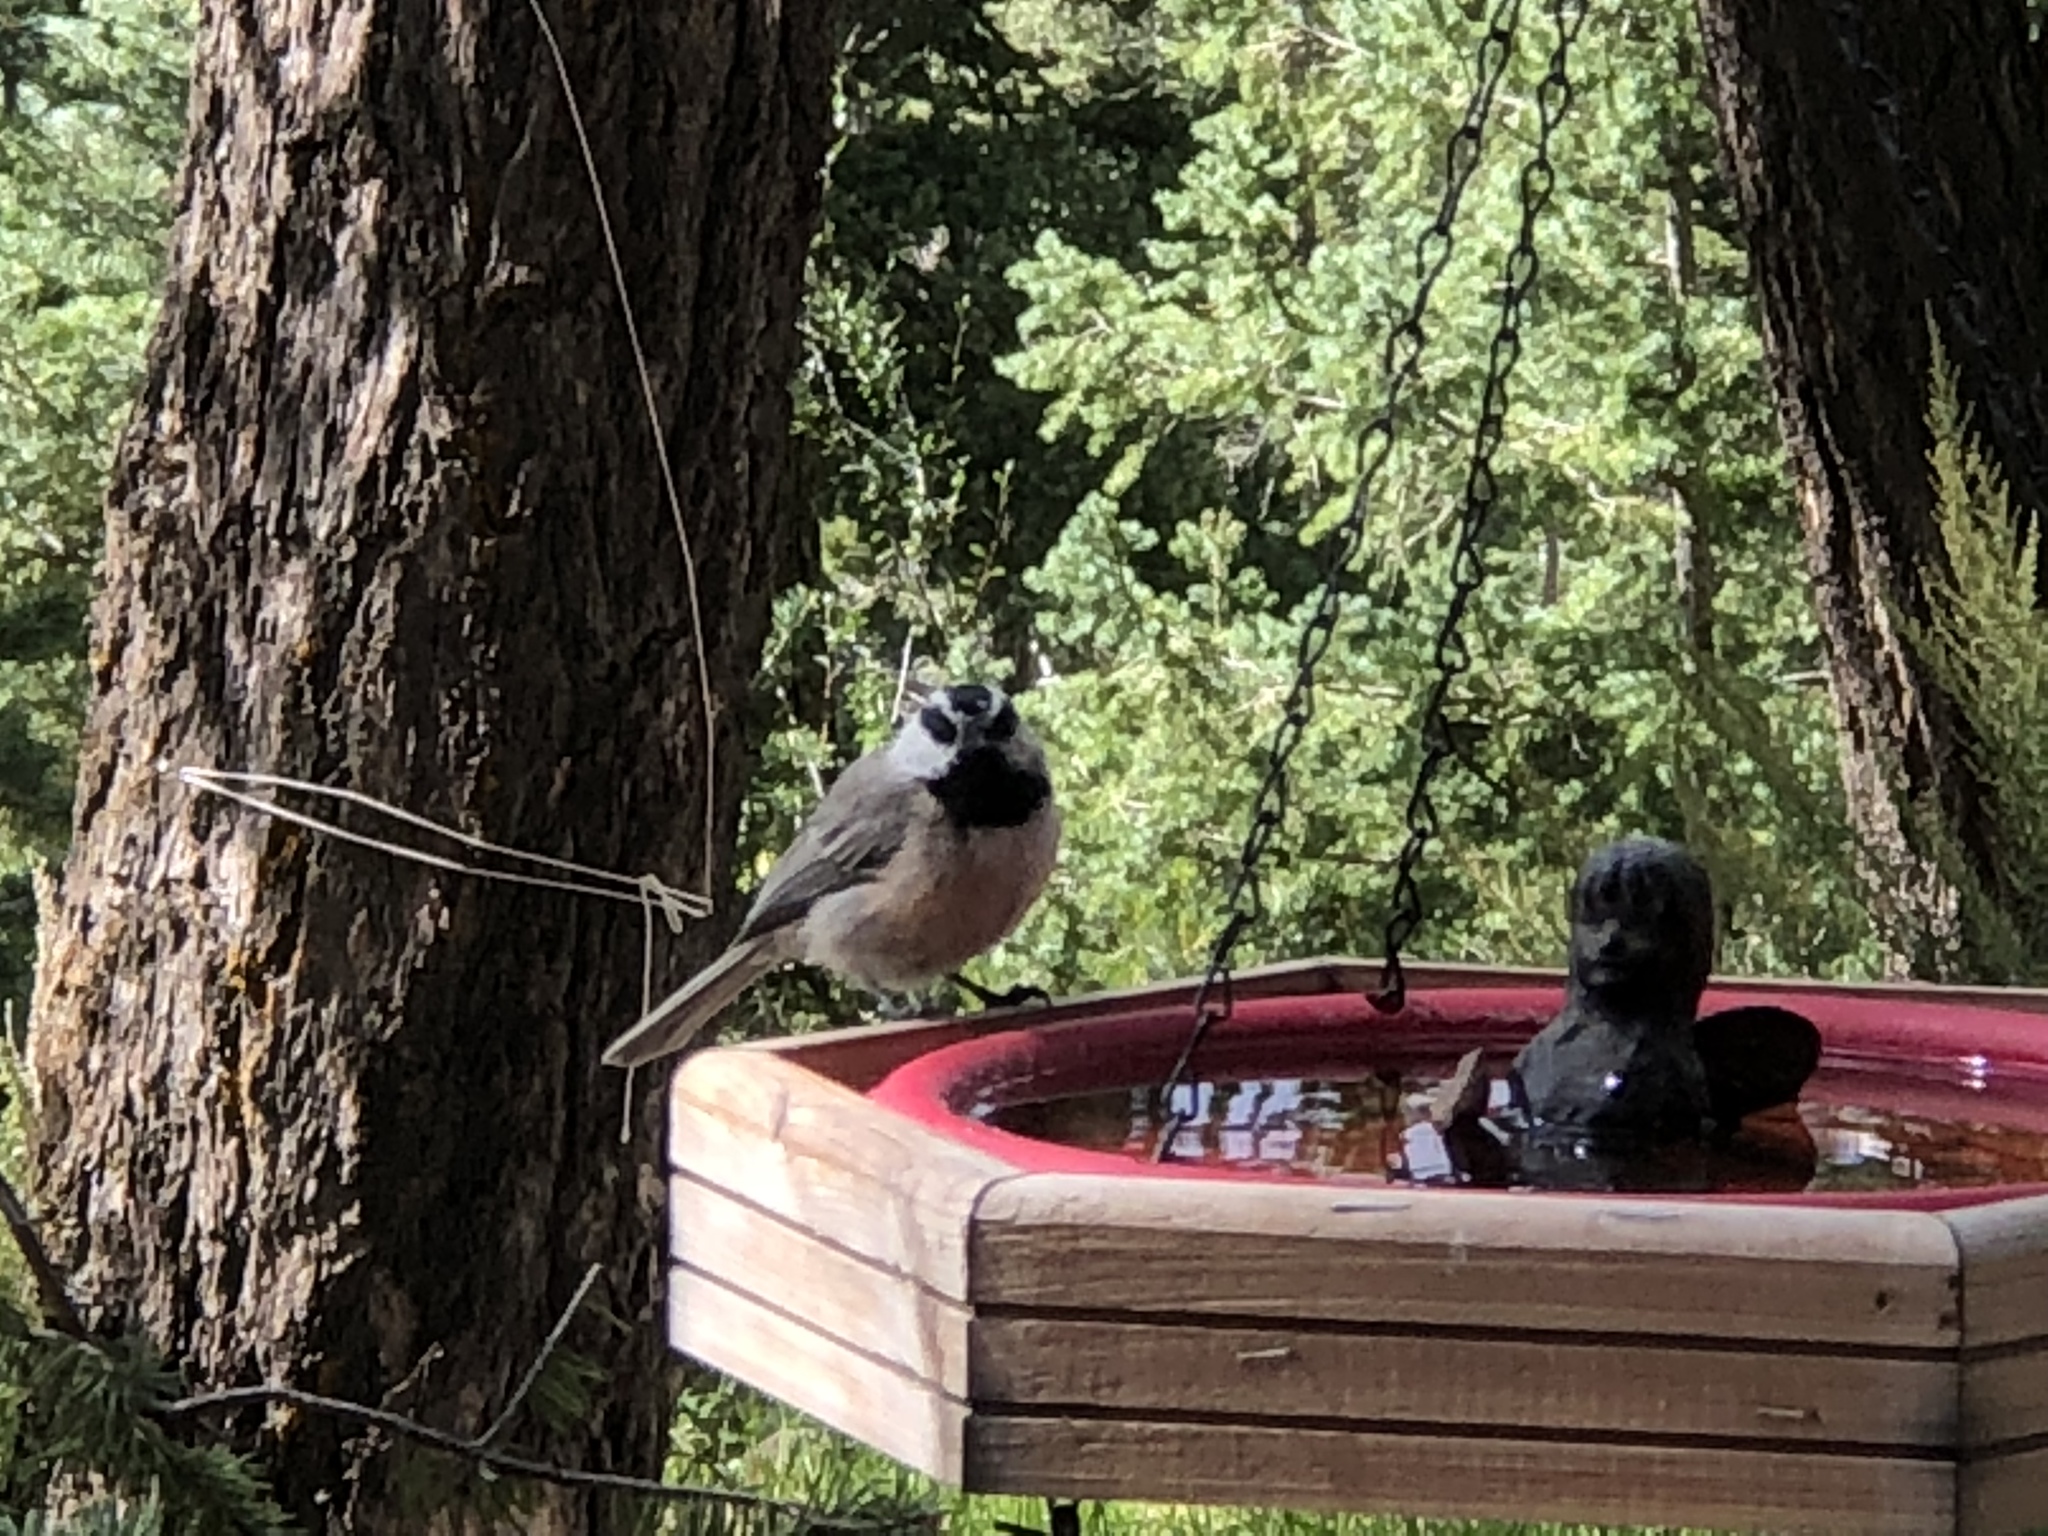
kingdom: Animalia
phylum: Chordata
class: Aves
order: Passeriformes
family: Paridae
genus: Poecile
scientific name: Poecile gambeli
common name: Mountain chickadee
